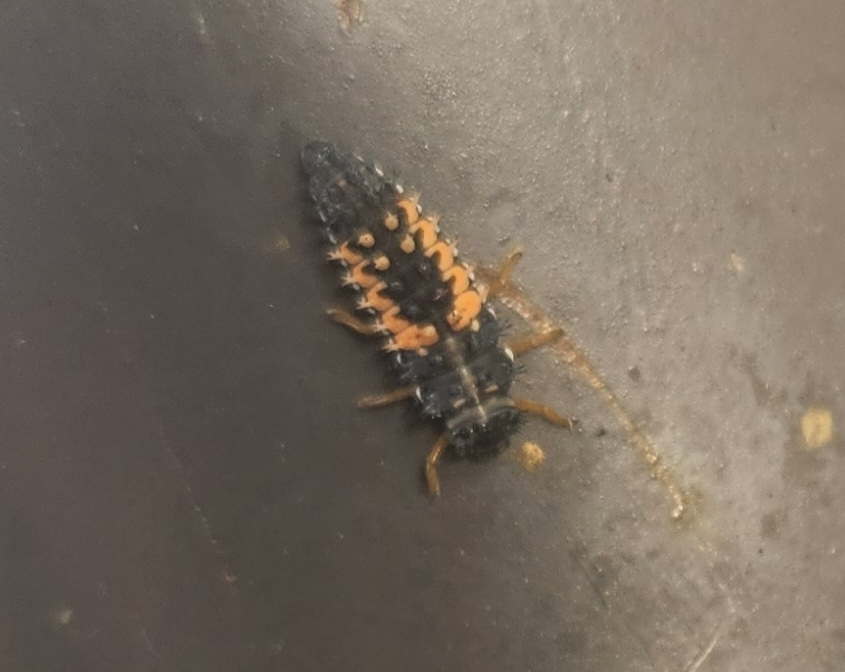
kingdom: Animalia
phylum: Arthropoda
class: Insecta
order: Coleoptera
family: Coccinellidae
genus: Harmonia
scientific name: Harmonia axyridis
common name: Harlequin ladybird
